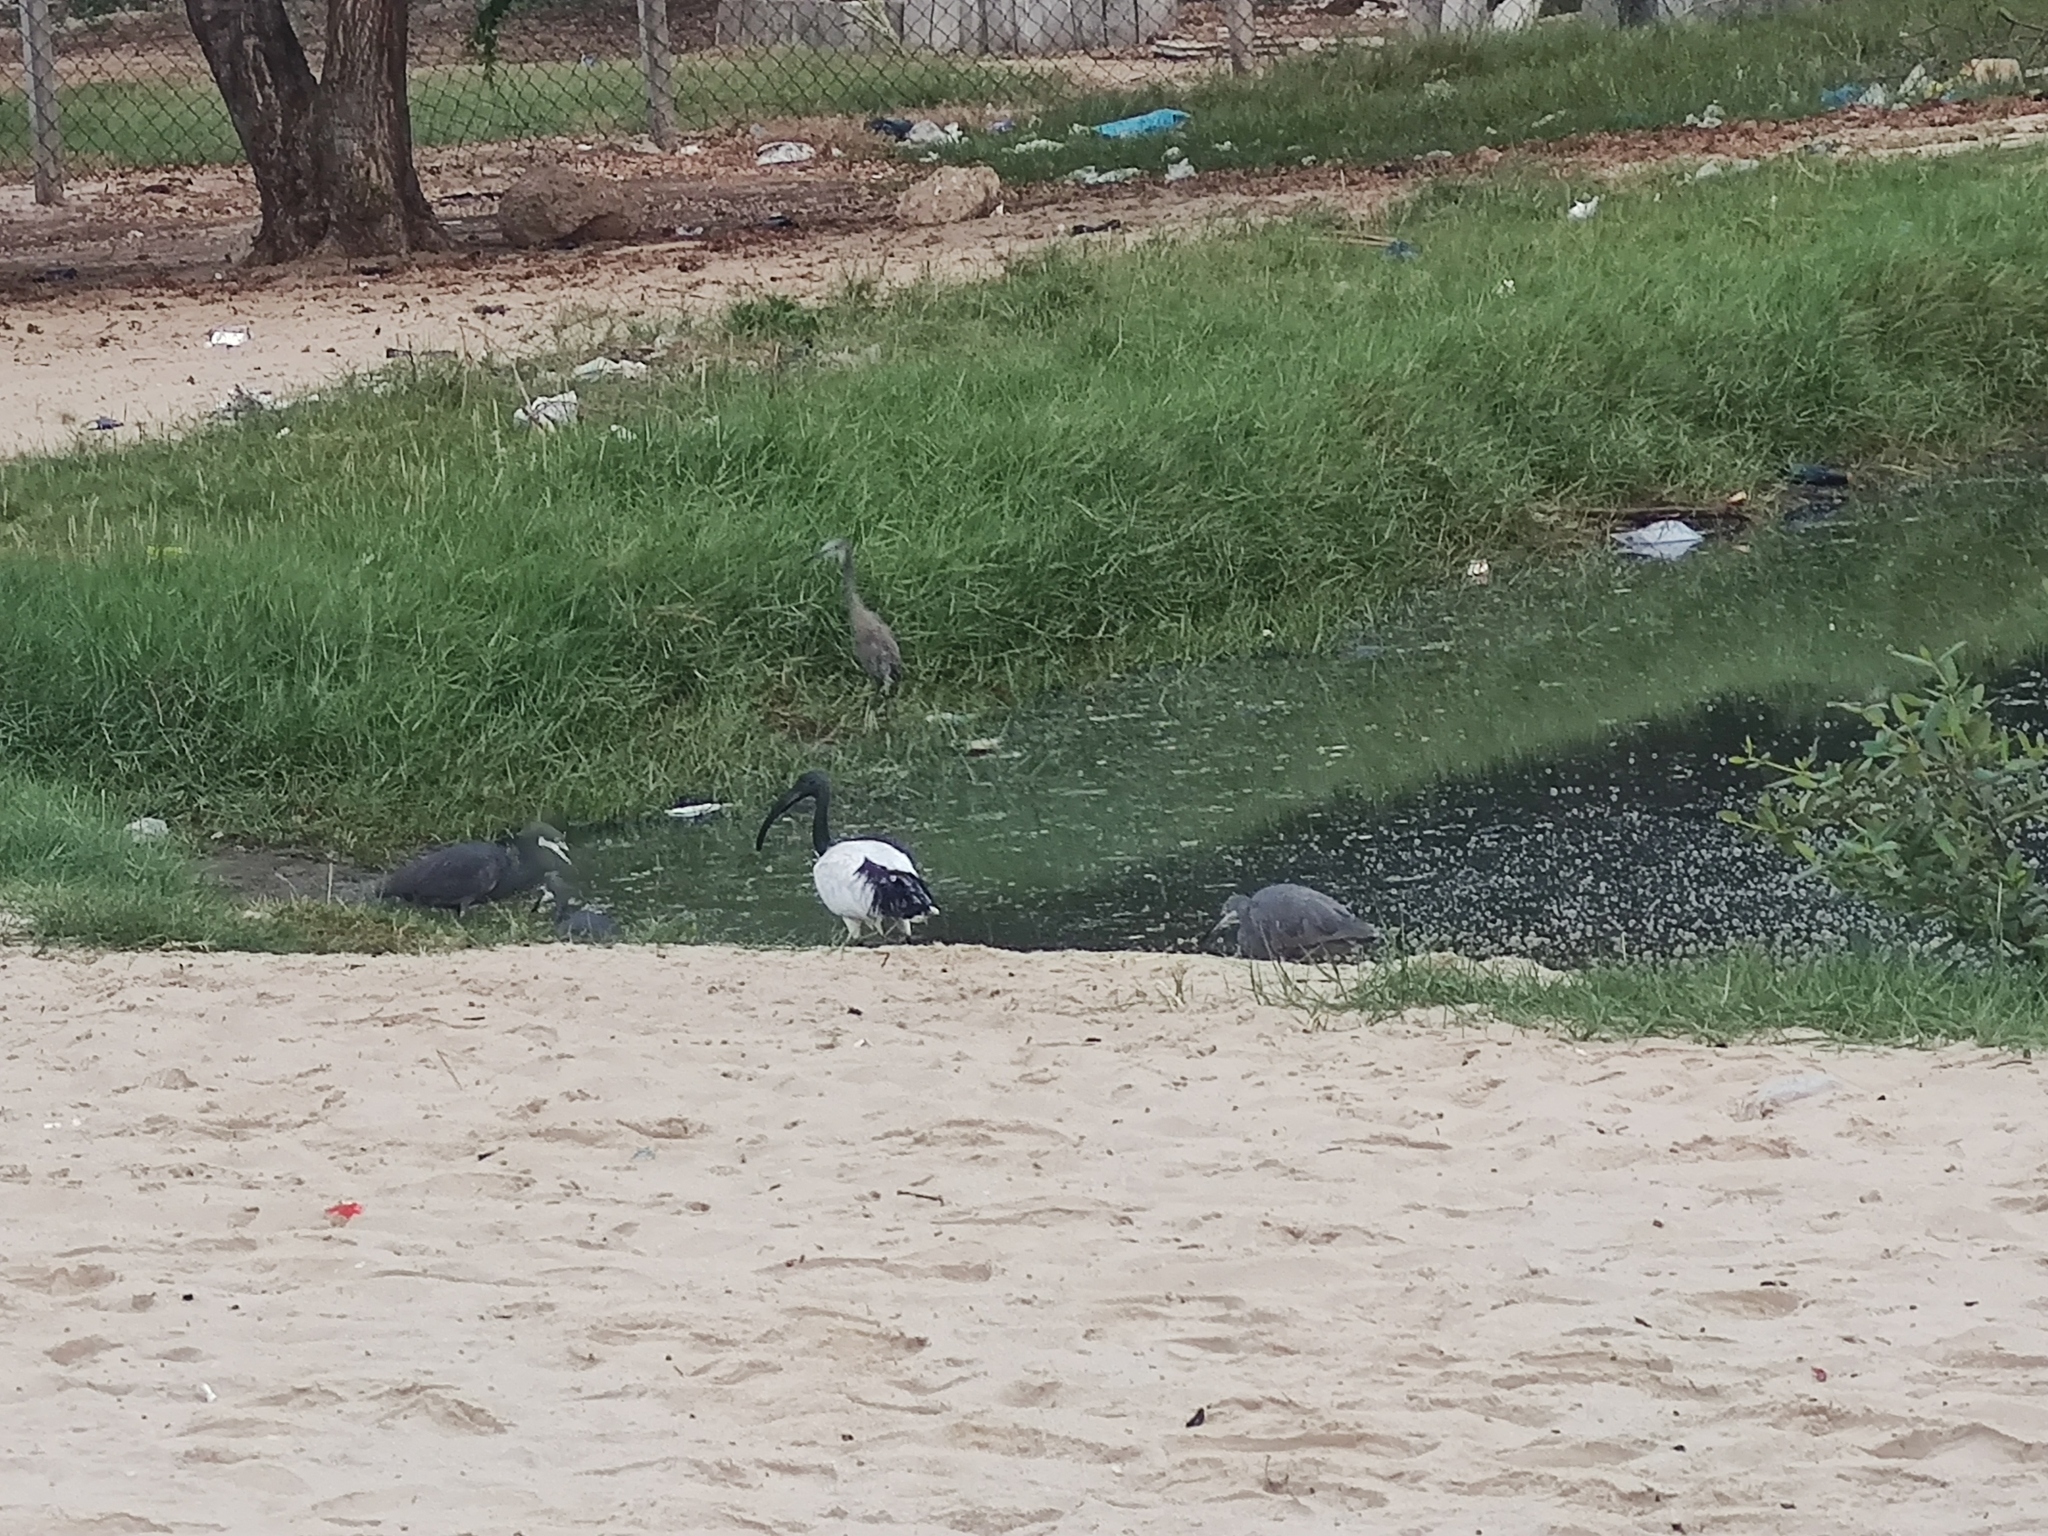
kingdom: Animalia
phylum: Chordata
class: Aves
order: Pelecaniformes
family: Threskiornithidae
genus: Threskiornis
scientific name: Threskiornis aethiopicus
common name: Sacred ibis
